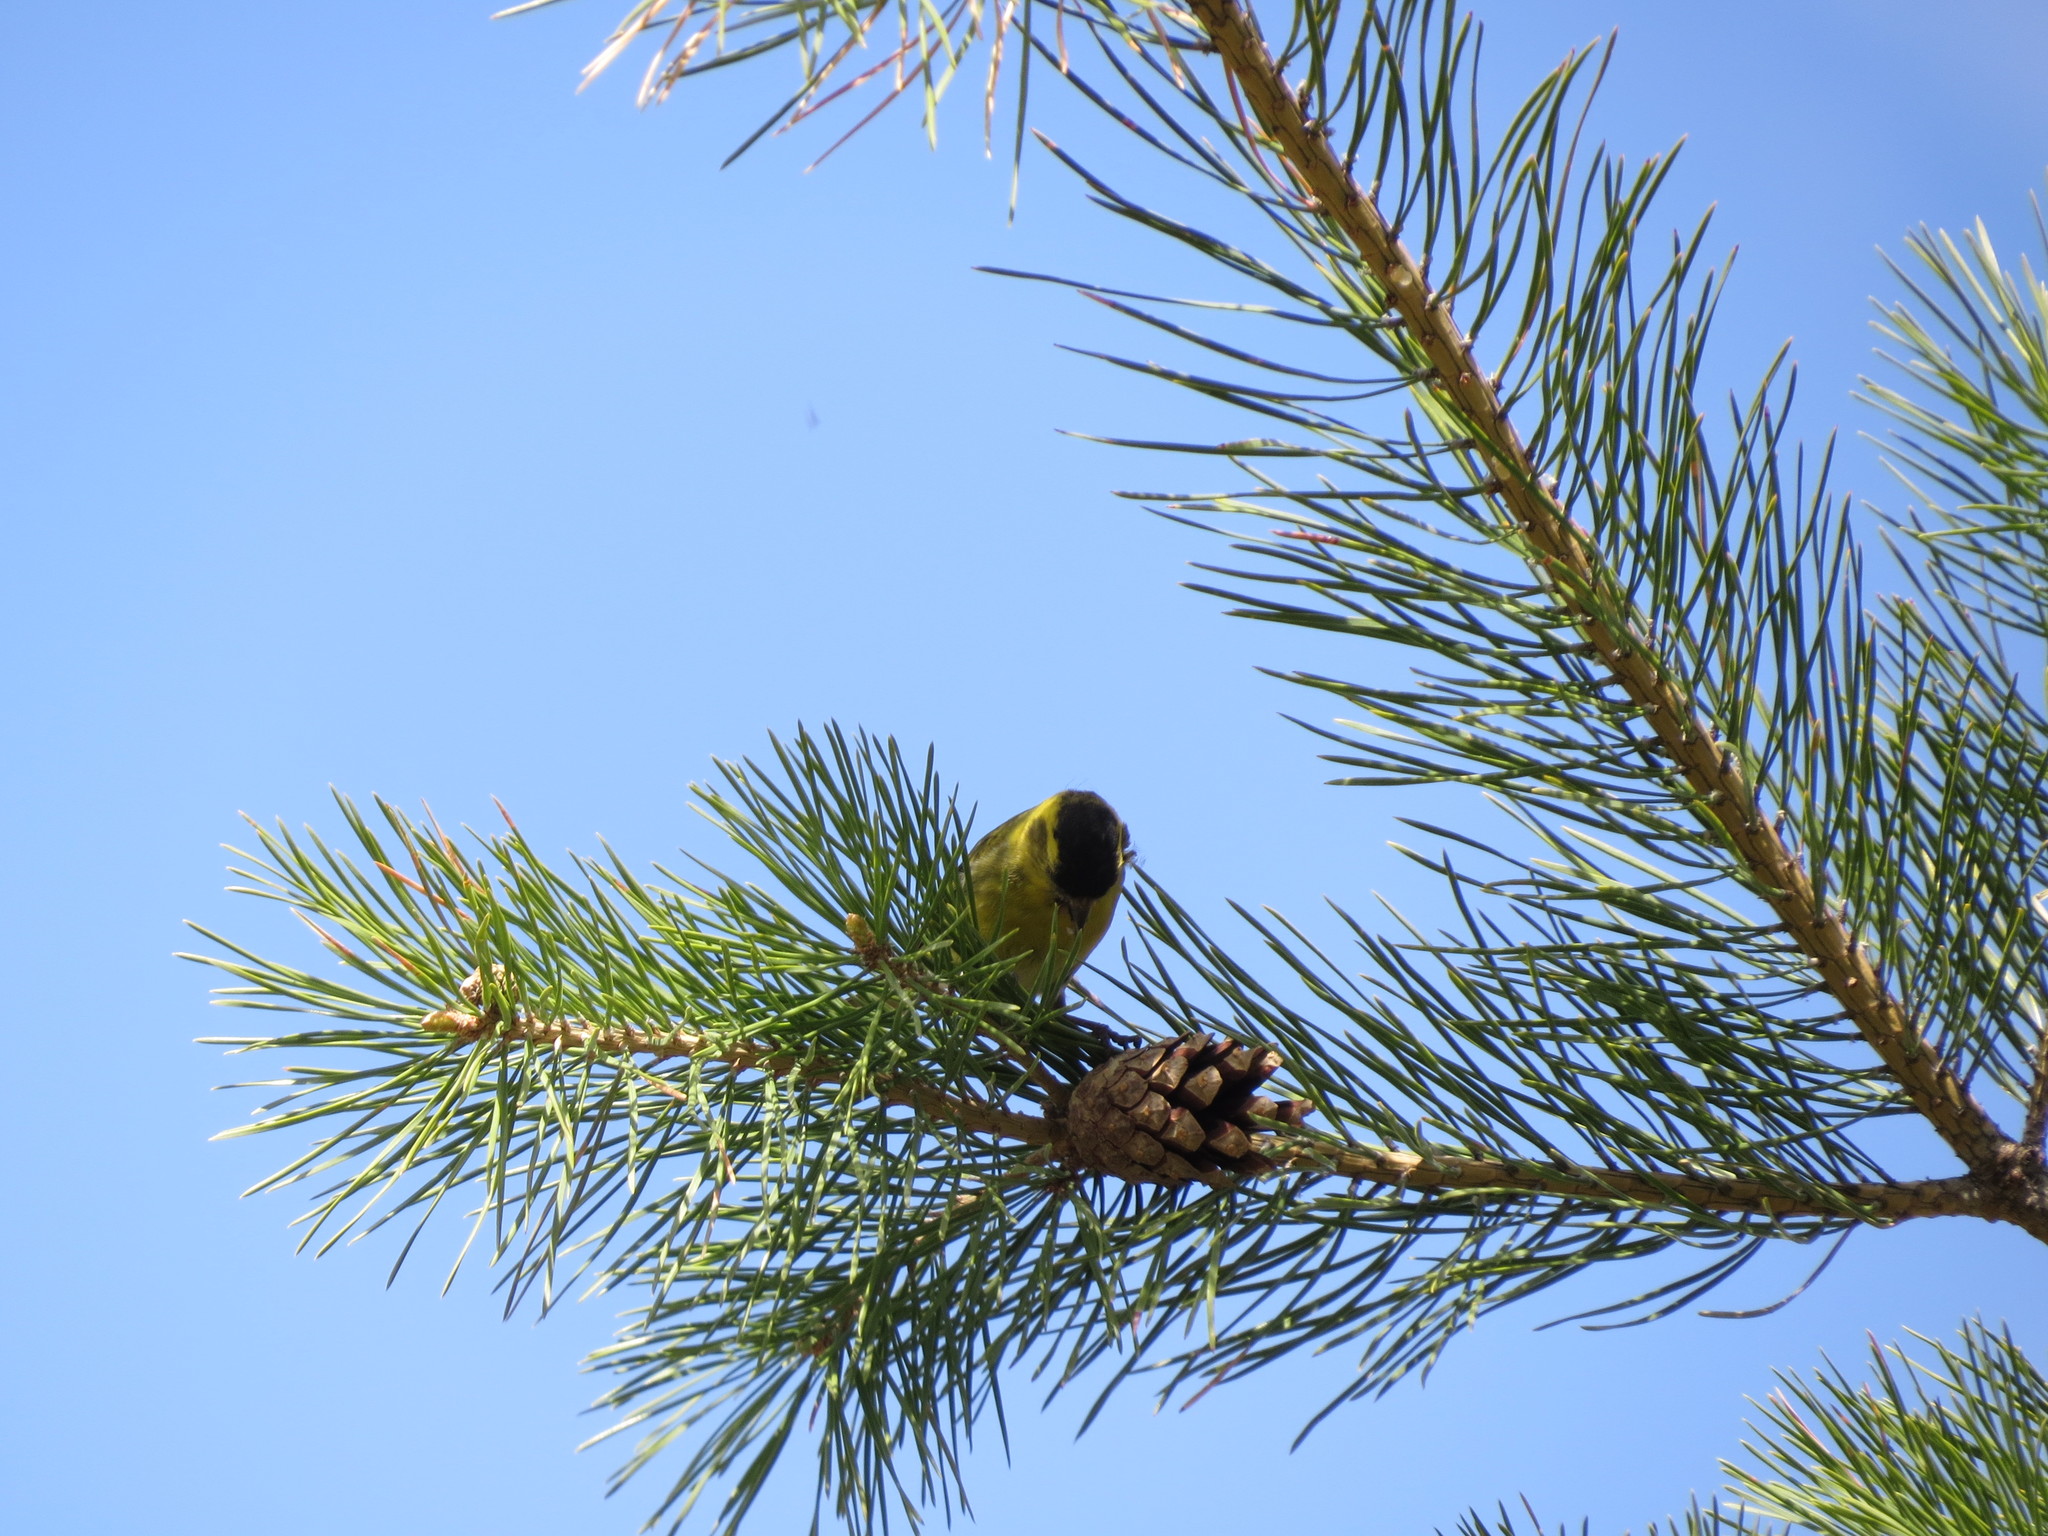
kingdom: Animalia
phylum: Chordata
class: Aves
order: Passeriformes
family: Fringillidae
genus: Spinus
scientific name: Spinus spinus
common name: Eurasian siskin
